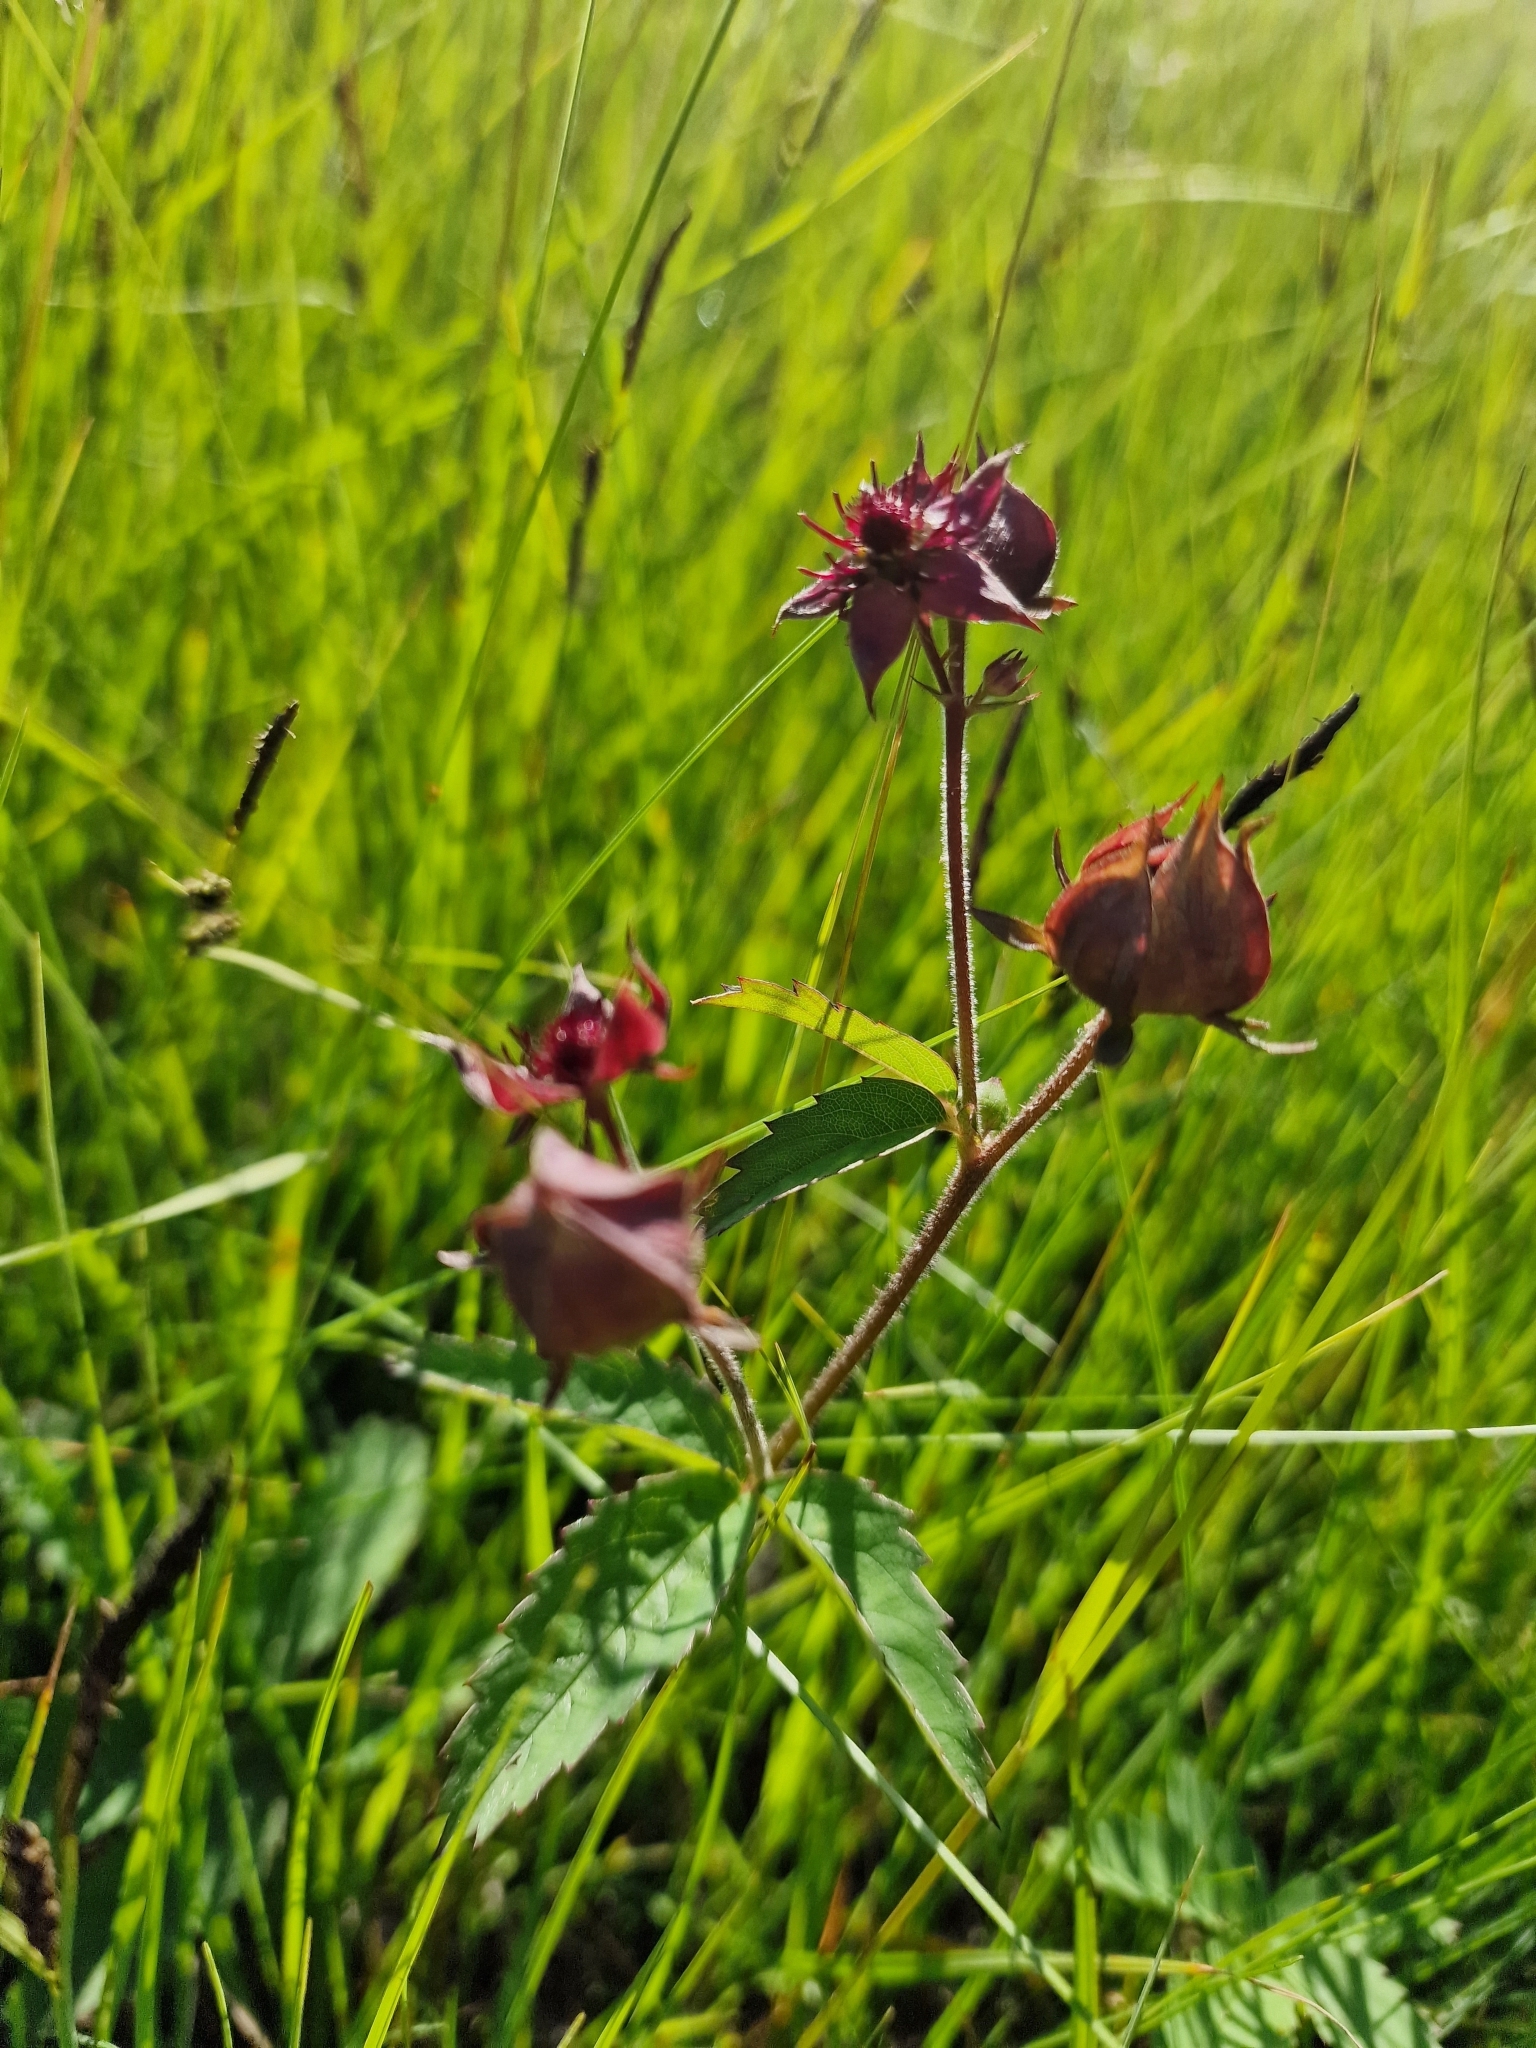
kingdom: Plantae
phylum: Tracheophyta
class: Magnoliopsida
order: Rosales
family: Rosaceae
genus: Comarum
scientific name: Comarum palustre
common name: Marsh cinquefoil
